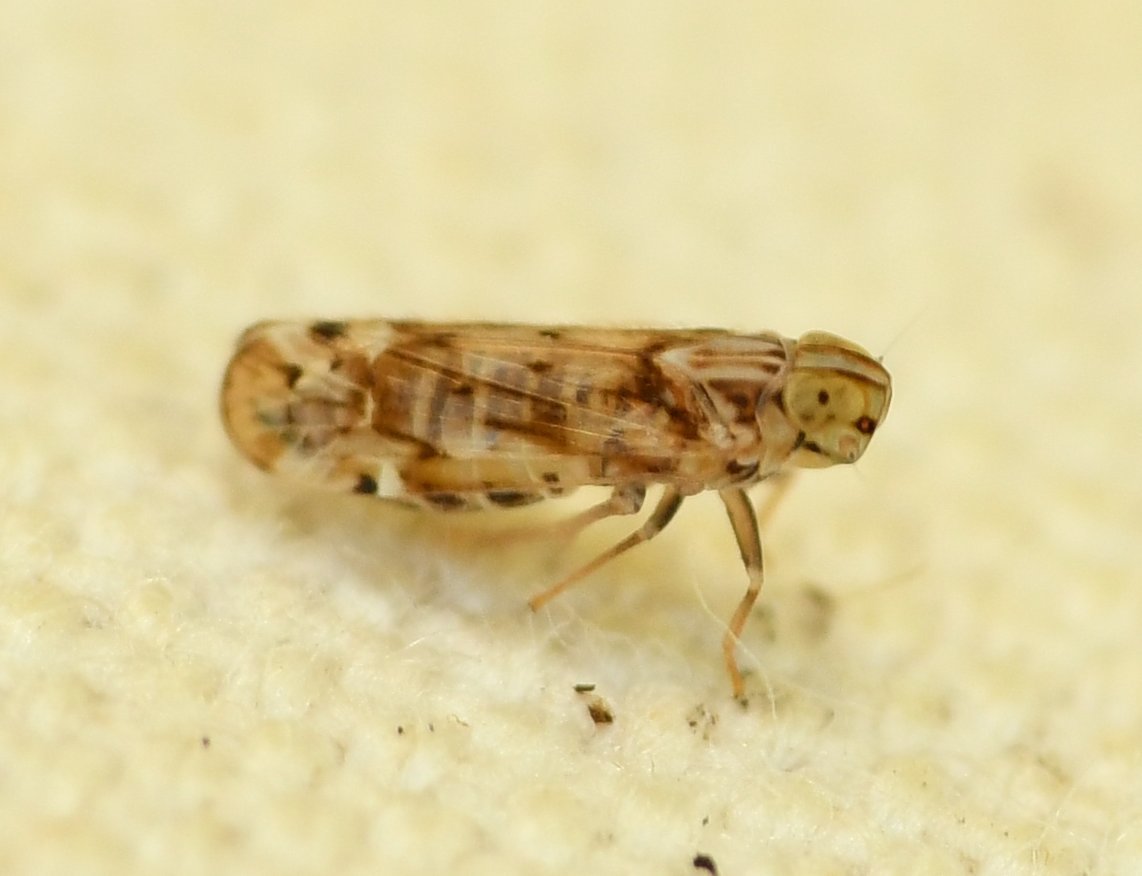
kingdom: Animalia
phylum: Arthropoda
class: Insecta
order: Hemiptera
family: Cixiidae
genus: Haplaxius
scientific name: Haplaxius lunatus
